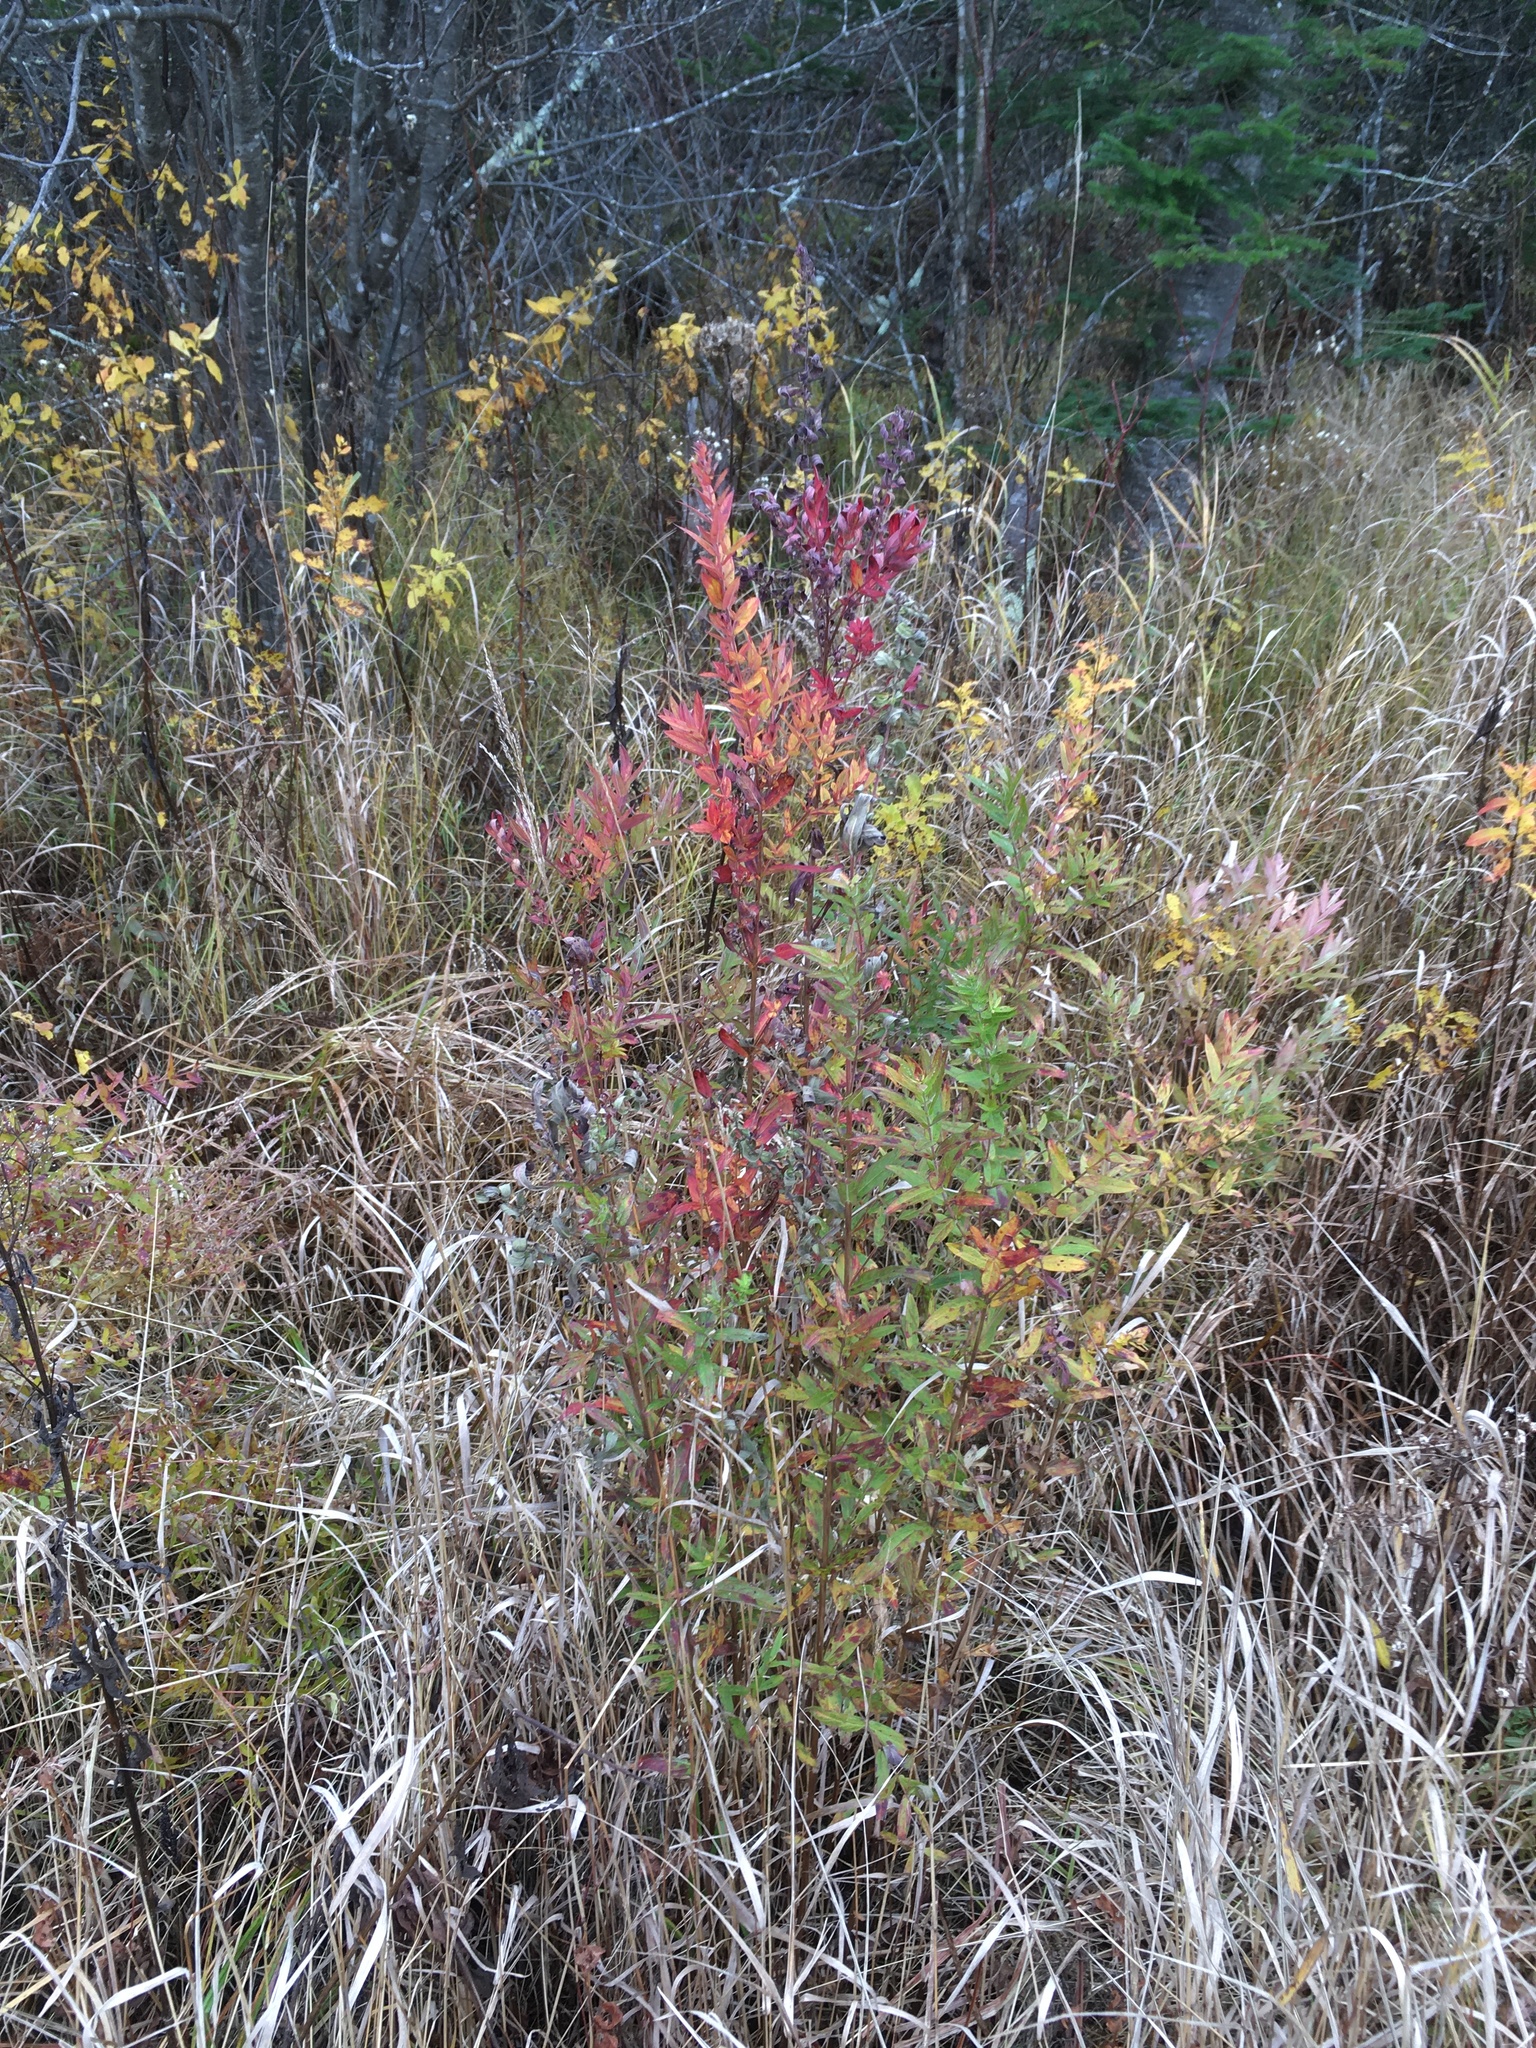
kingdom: Plantae
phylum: Tracheophyta
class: Magnoliopsida
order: Myrtales
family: Lythraceae
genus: Lythrum
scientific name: Lythrum salicaria
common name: Purple loosestrife
